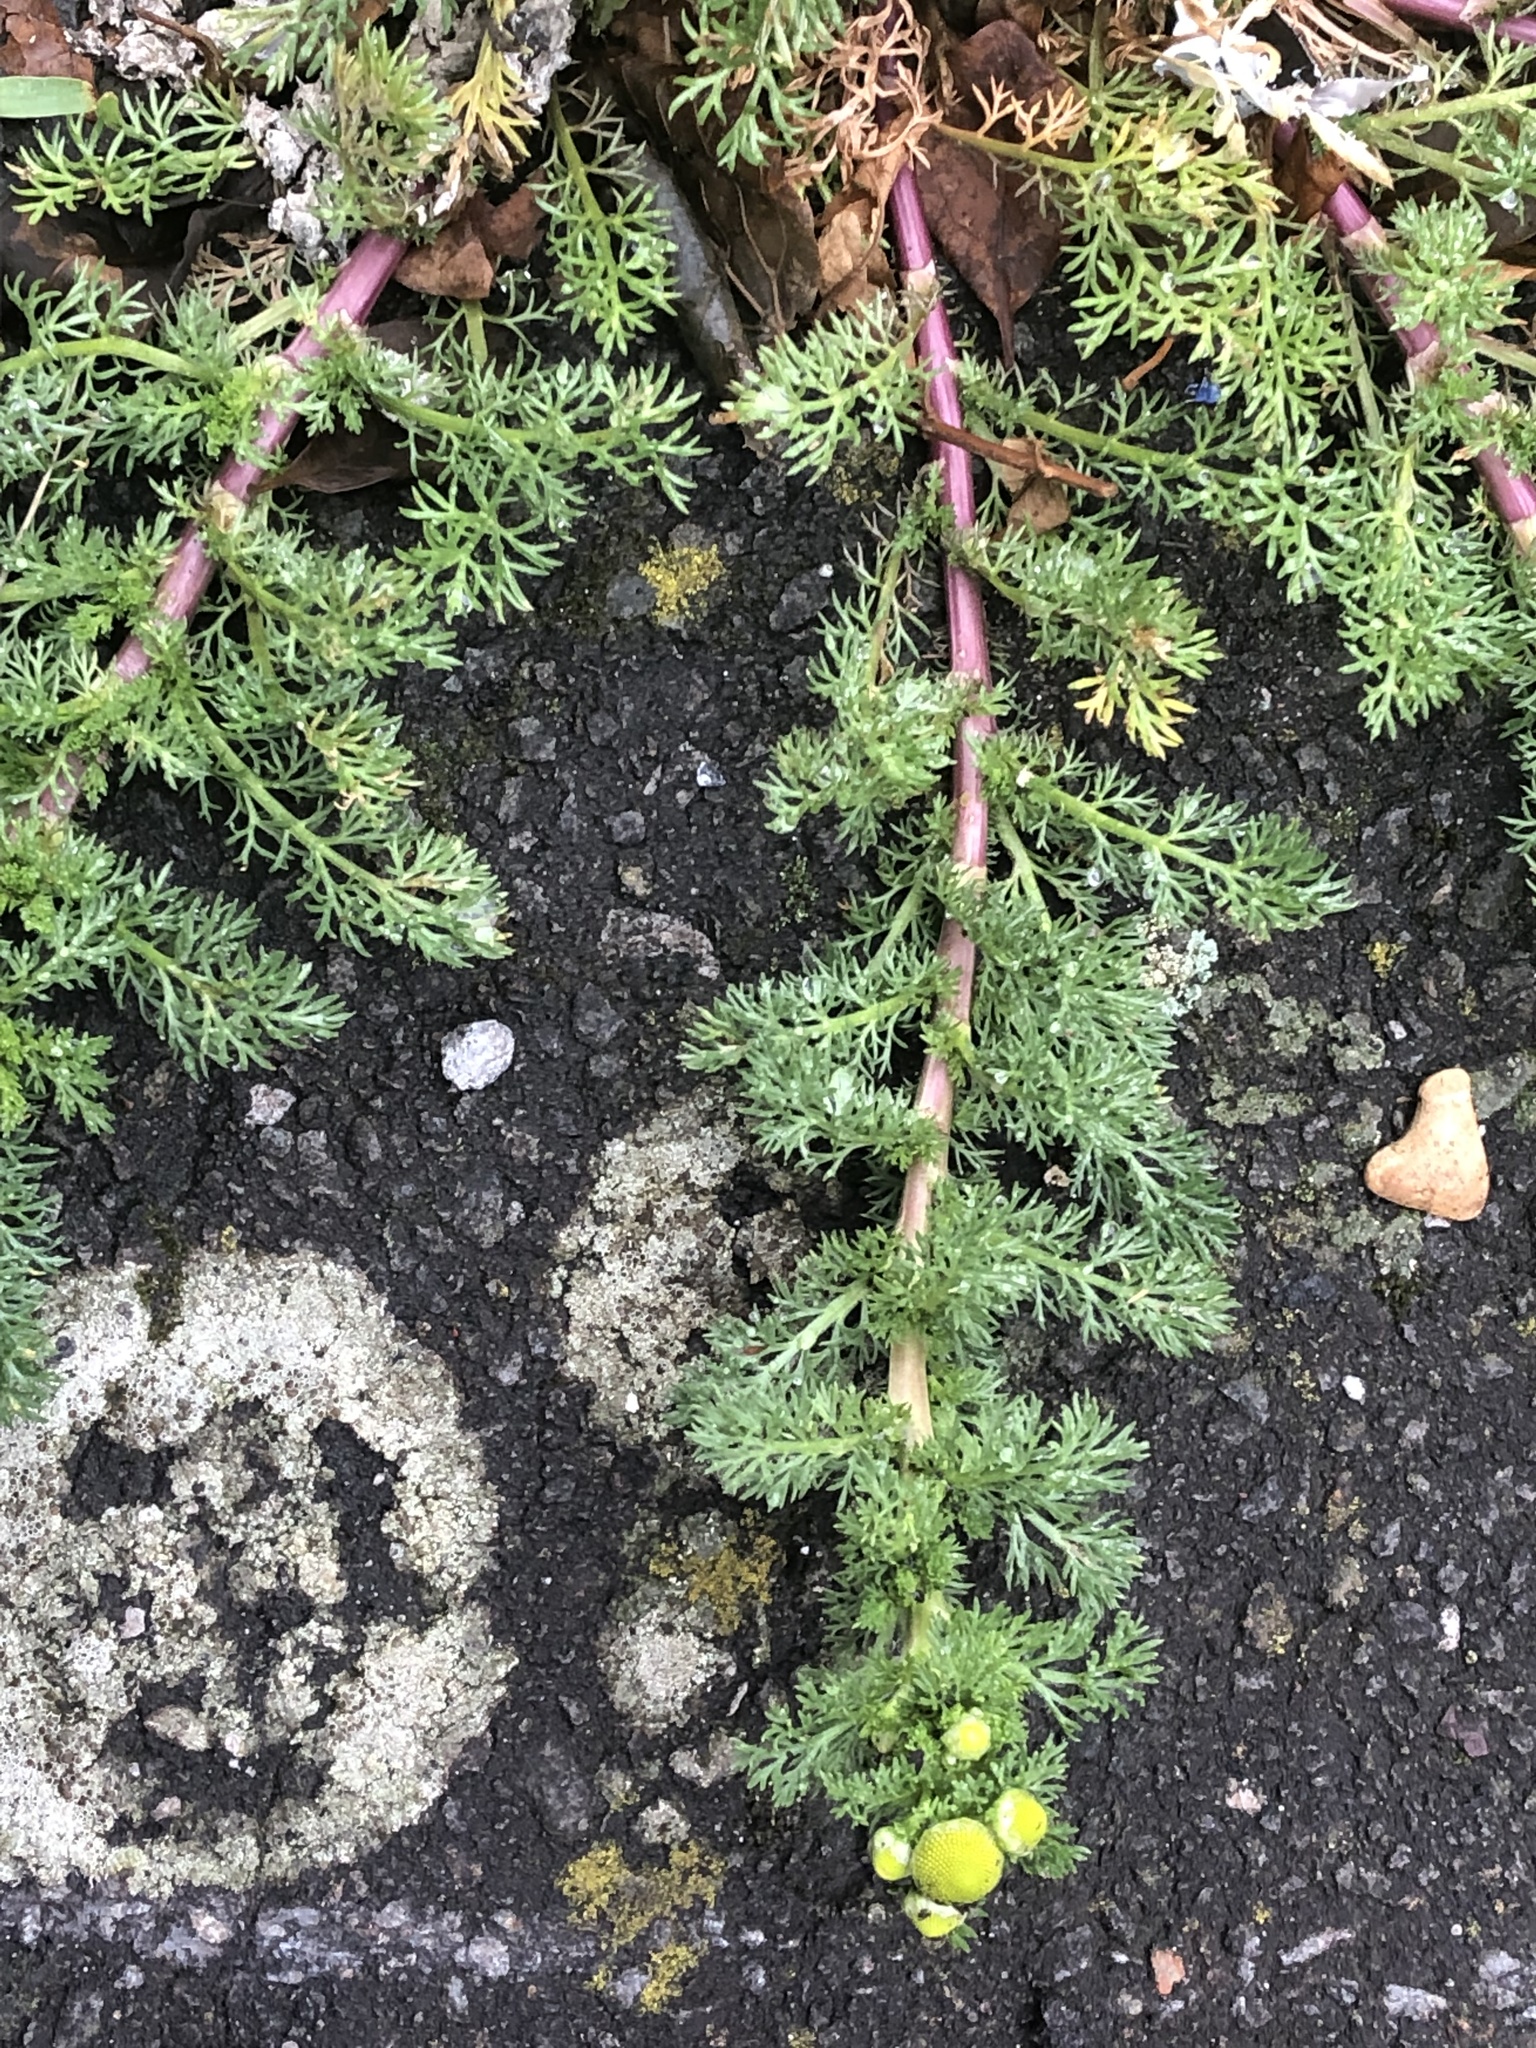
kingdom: Plantae
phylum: Tracheophyta
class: Magnoliopsida
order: Asterales
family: Asteraceae
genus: Matricaria
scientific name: Matricaria discoidea
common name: Disc mayweed
